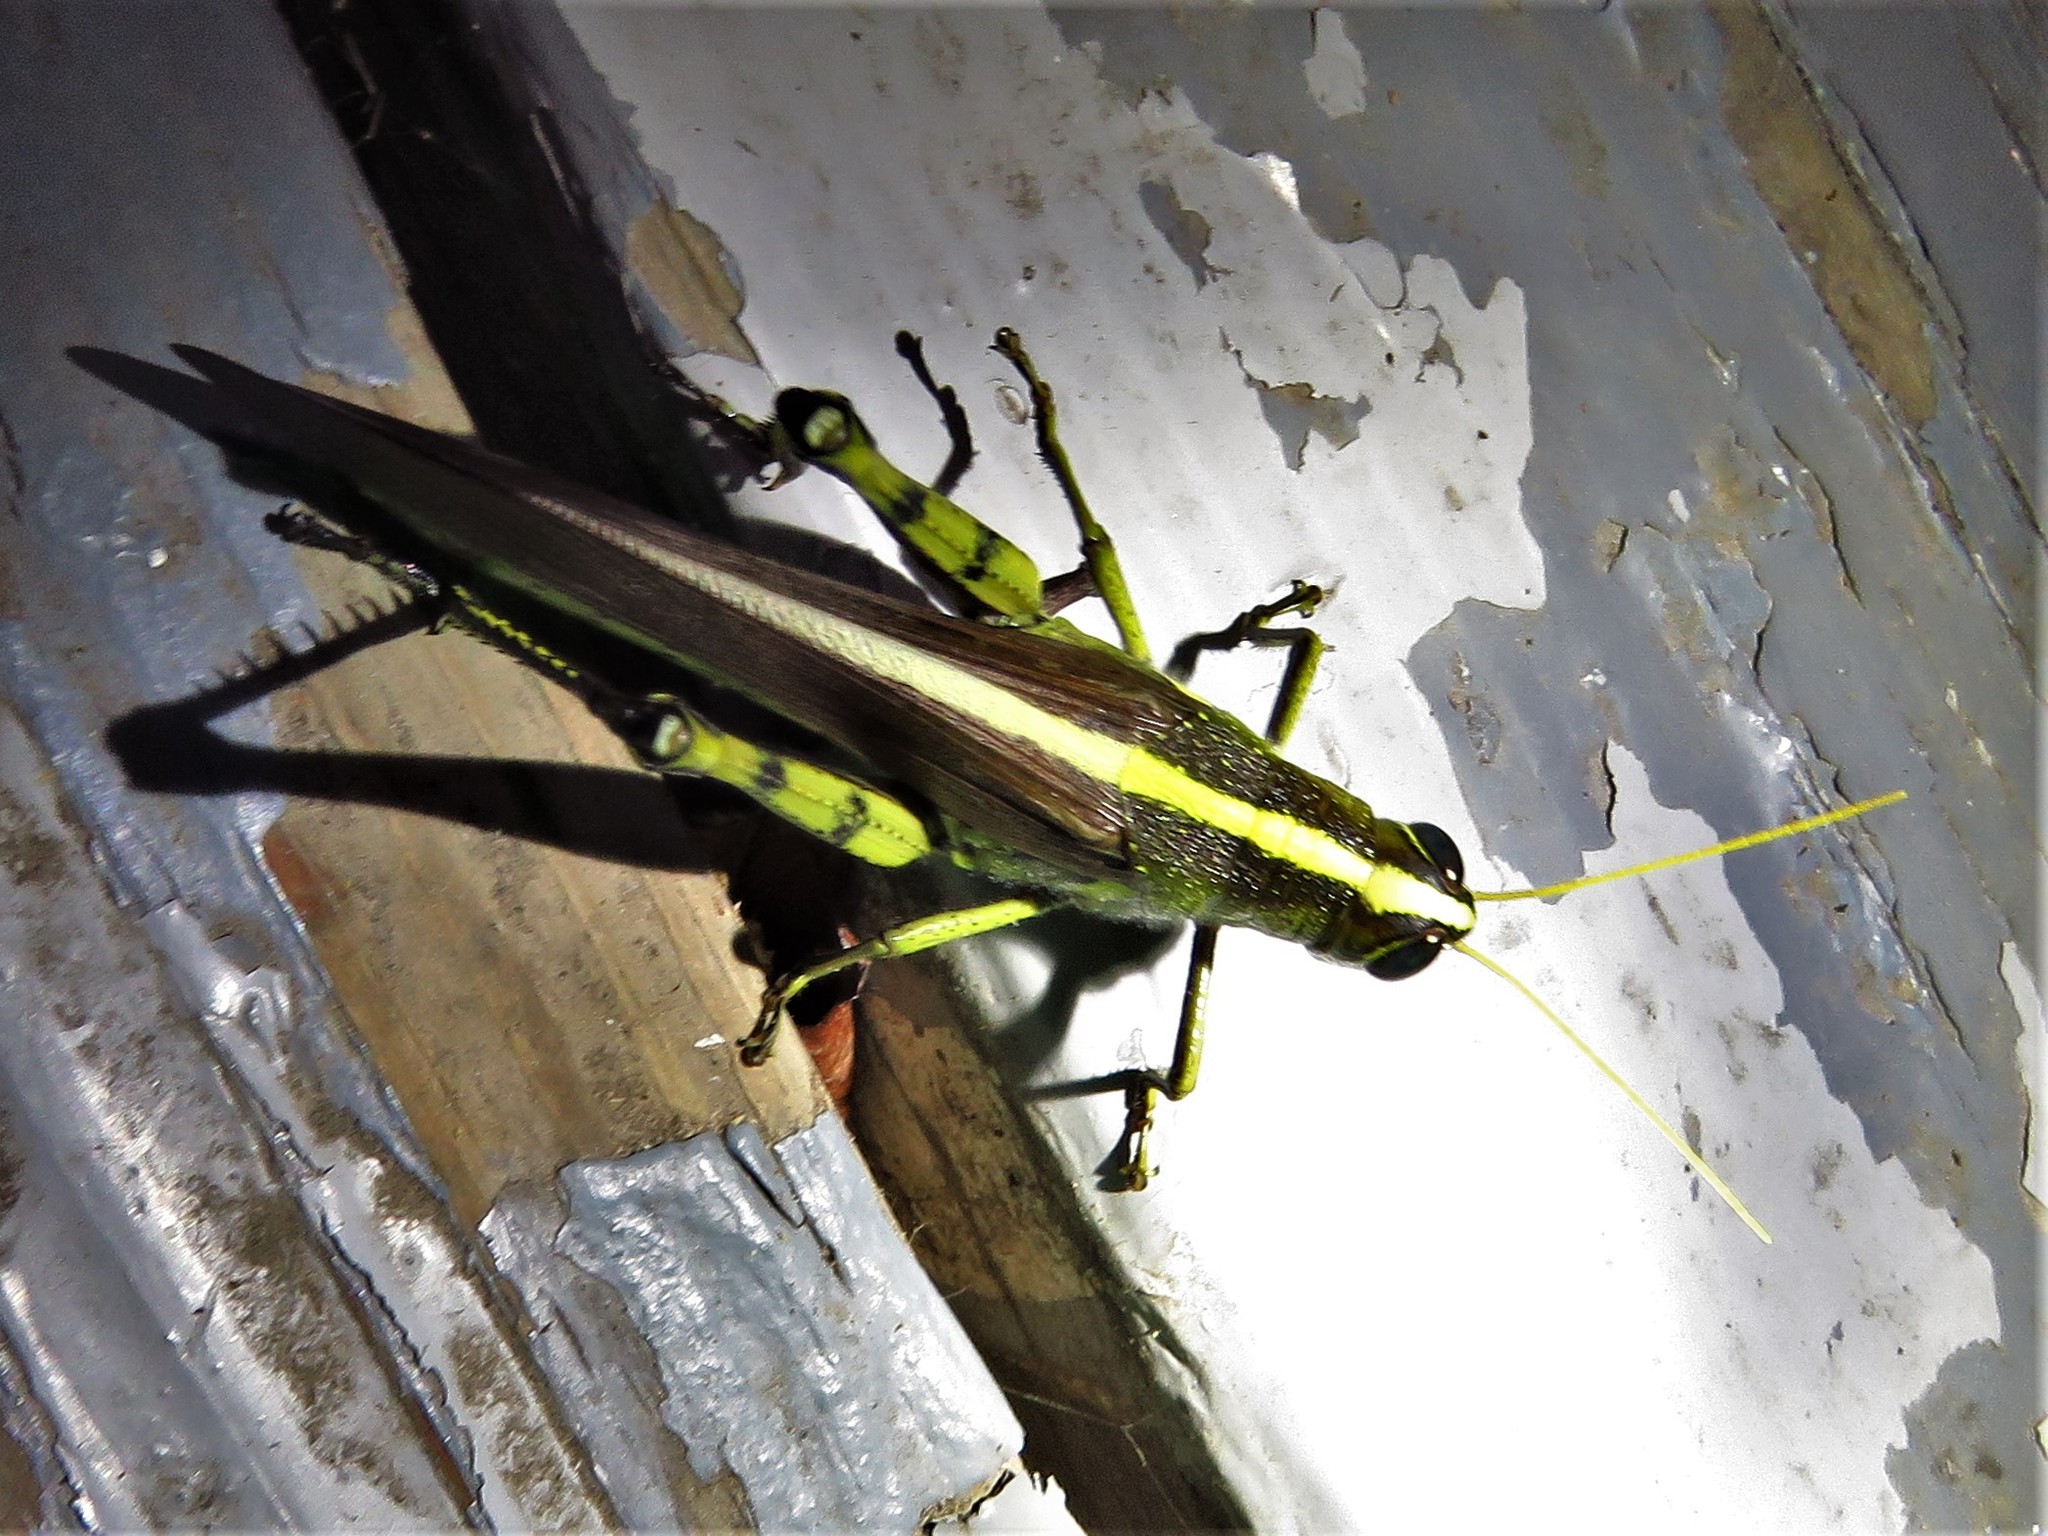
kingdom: Animalia
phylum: Arthropoda
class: Insecta
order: Orthoptera
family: Acrididae
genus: Schistocerca
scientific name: Schistocerca obscura
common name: Obscure bird grasshopper
